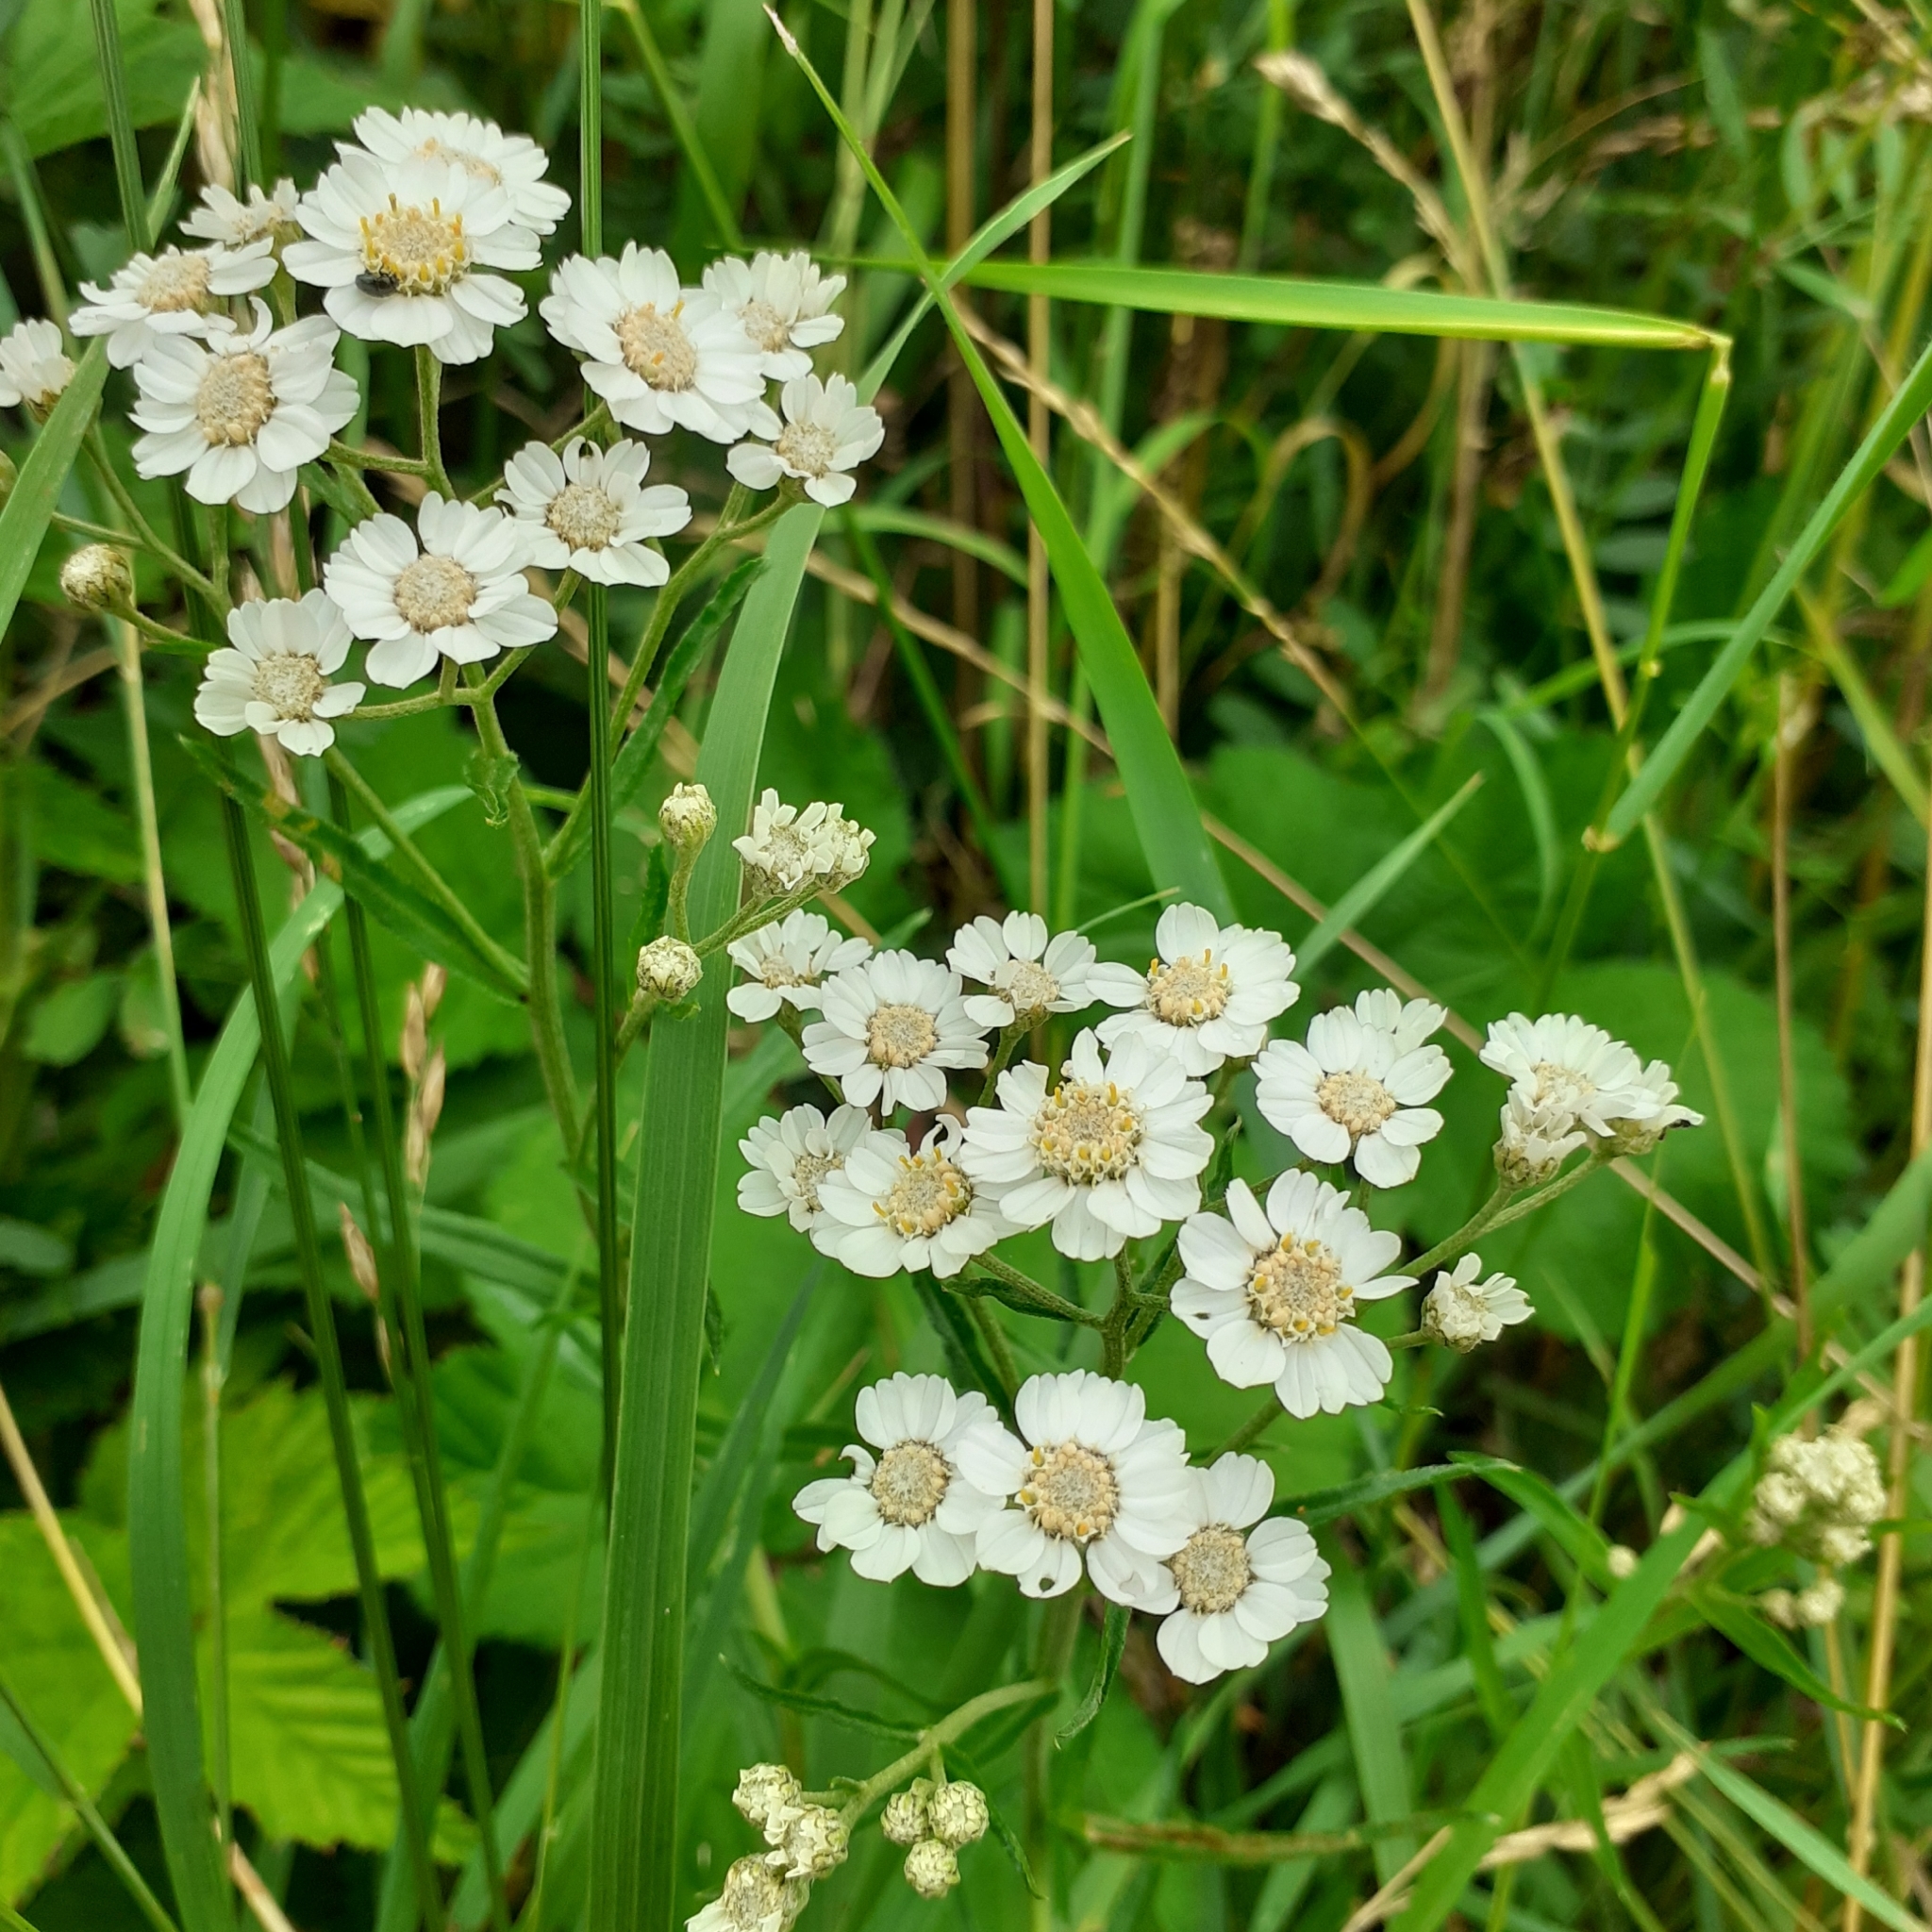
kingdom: Plantae
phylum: Tracheophyta
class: Magnoliopsida
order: Asterales
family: Asteraceae
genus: Achillea
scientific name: Achillea ptarmica
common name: Sneezeweed
